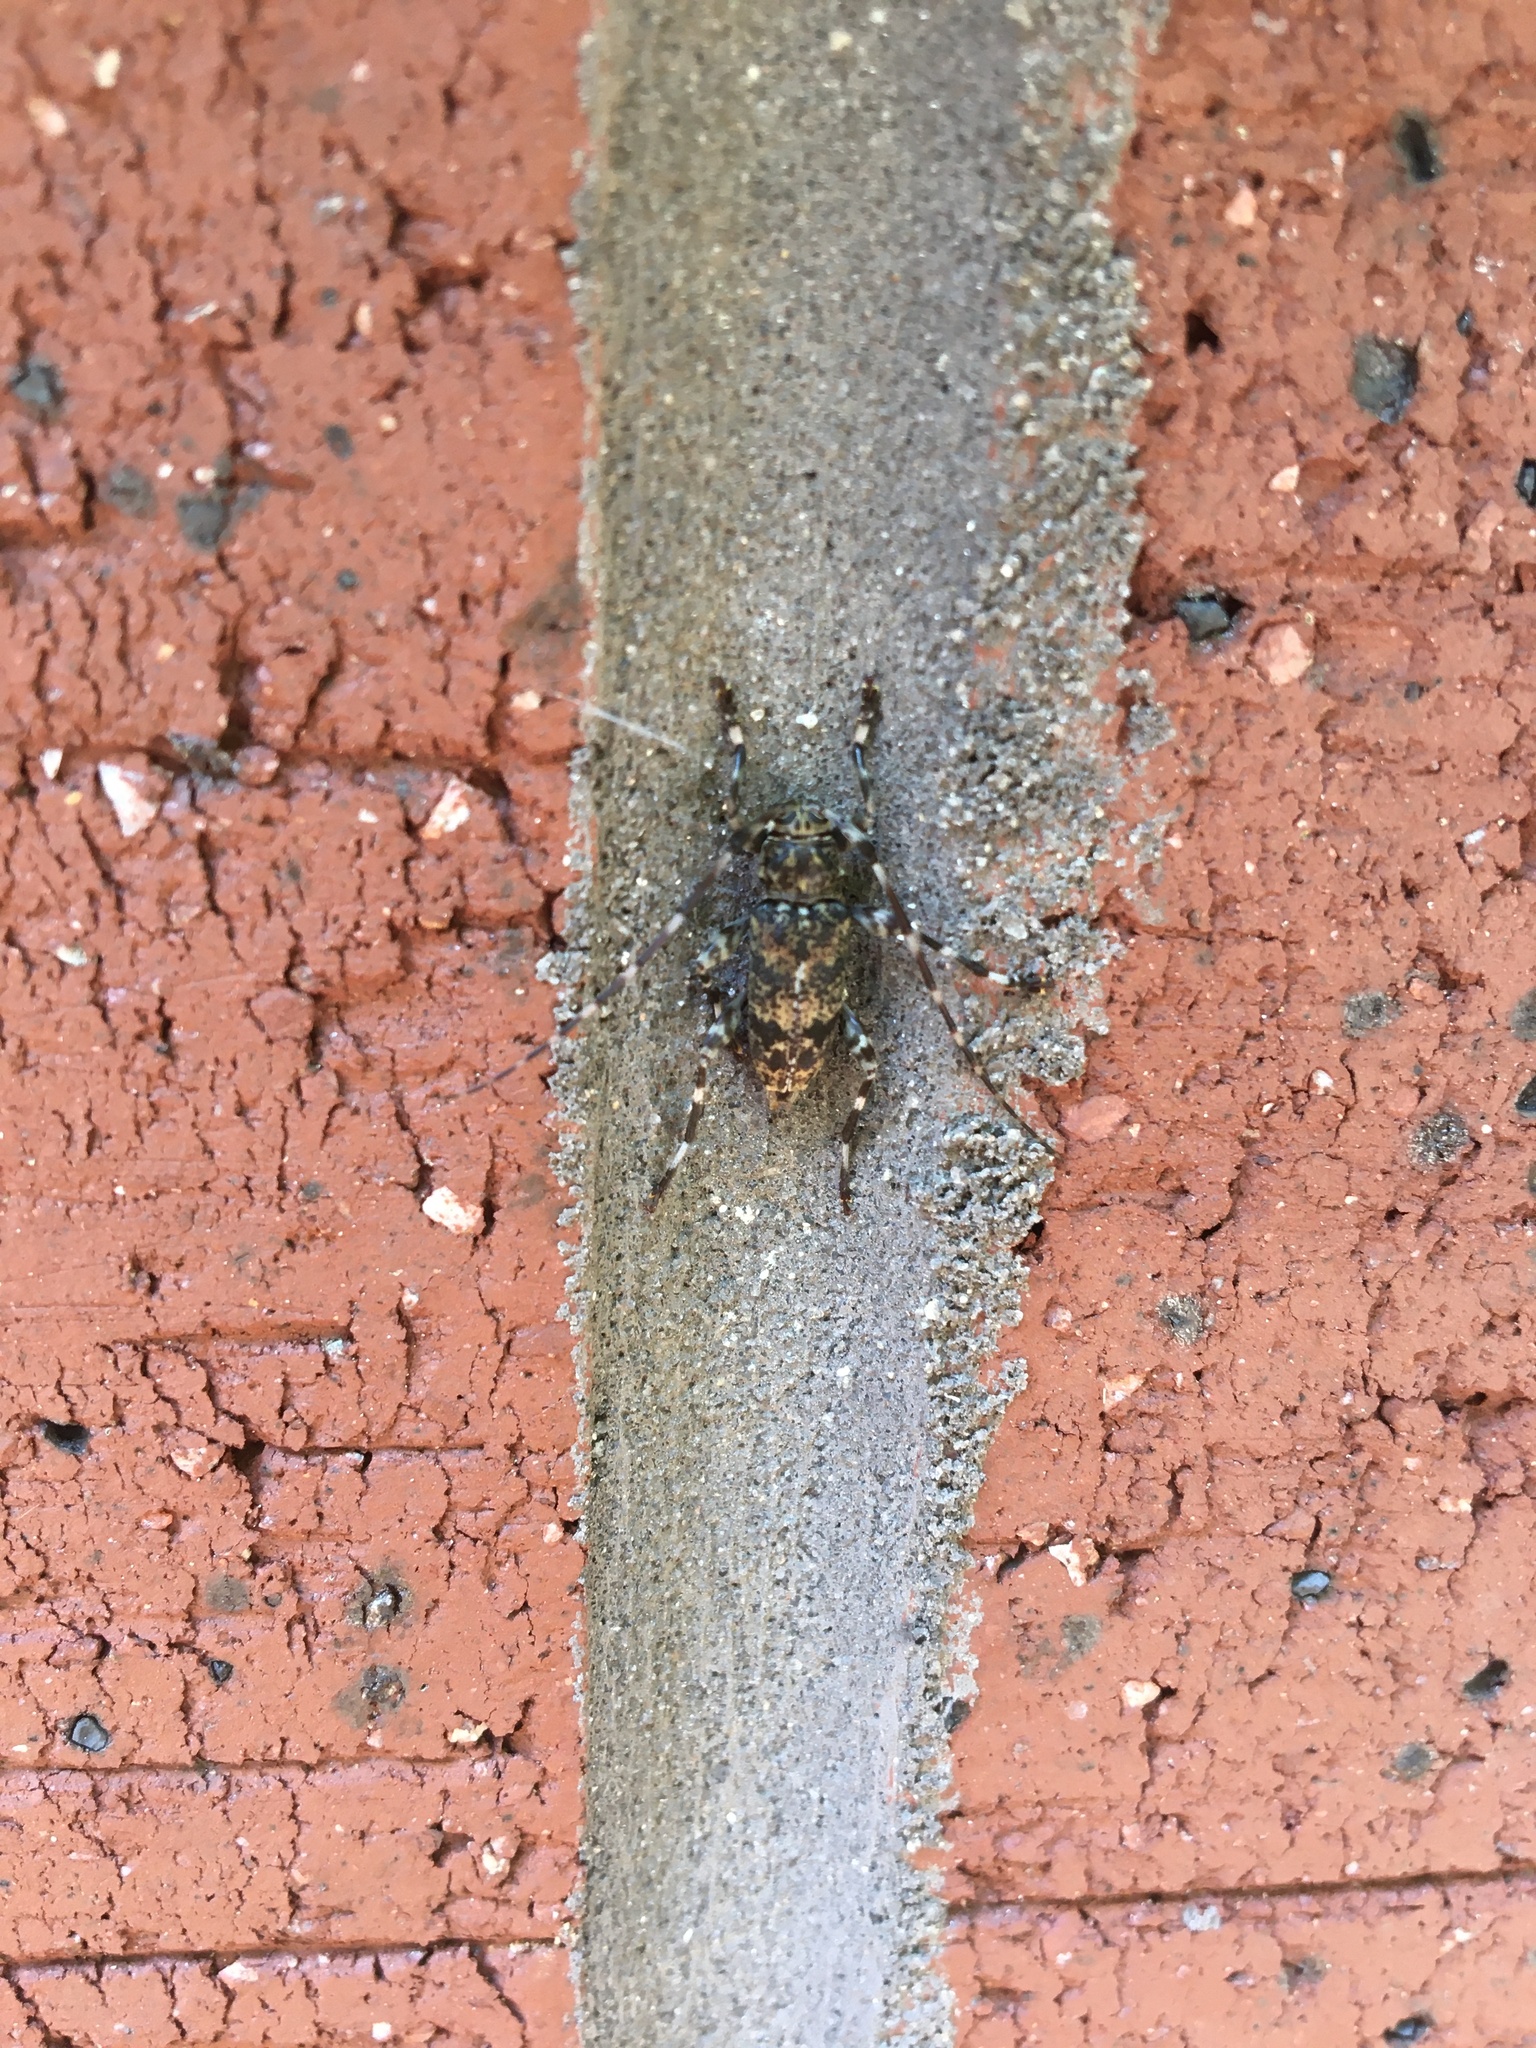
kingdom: Animalia
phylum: Arthropoda
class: Insecta
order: Coleoptera
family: Cerambycidae
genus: Graphisurus
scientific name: Graphisurus fasciatus
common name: Banded graphisurus
